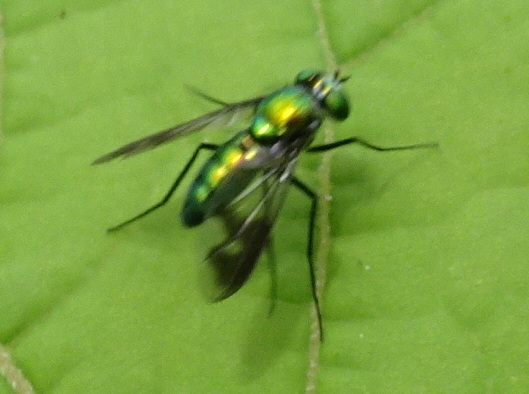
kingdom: Animalia
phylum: Arthropoda
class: Insecta
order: Diptera
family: Dolichopodidae
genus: Condylostylus
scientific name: Condylostylus patibulatus
